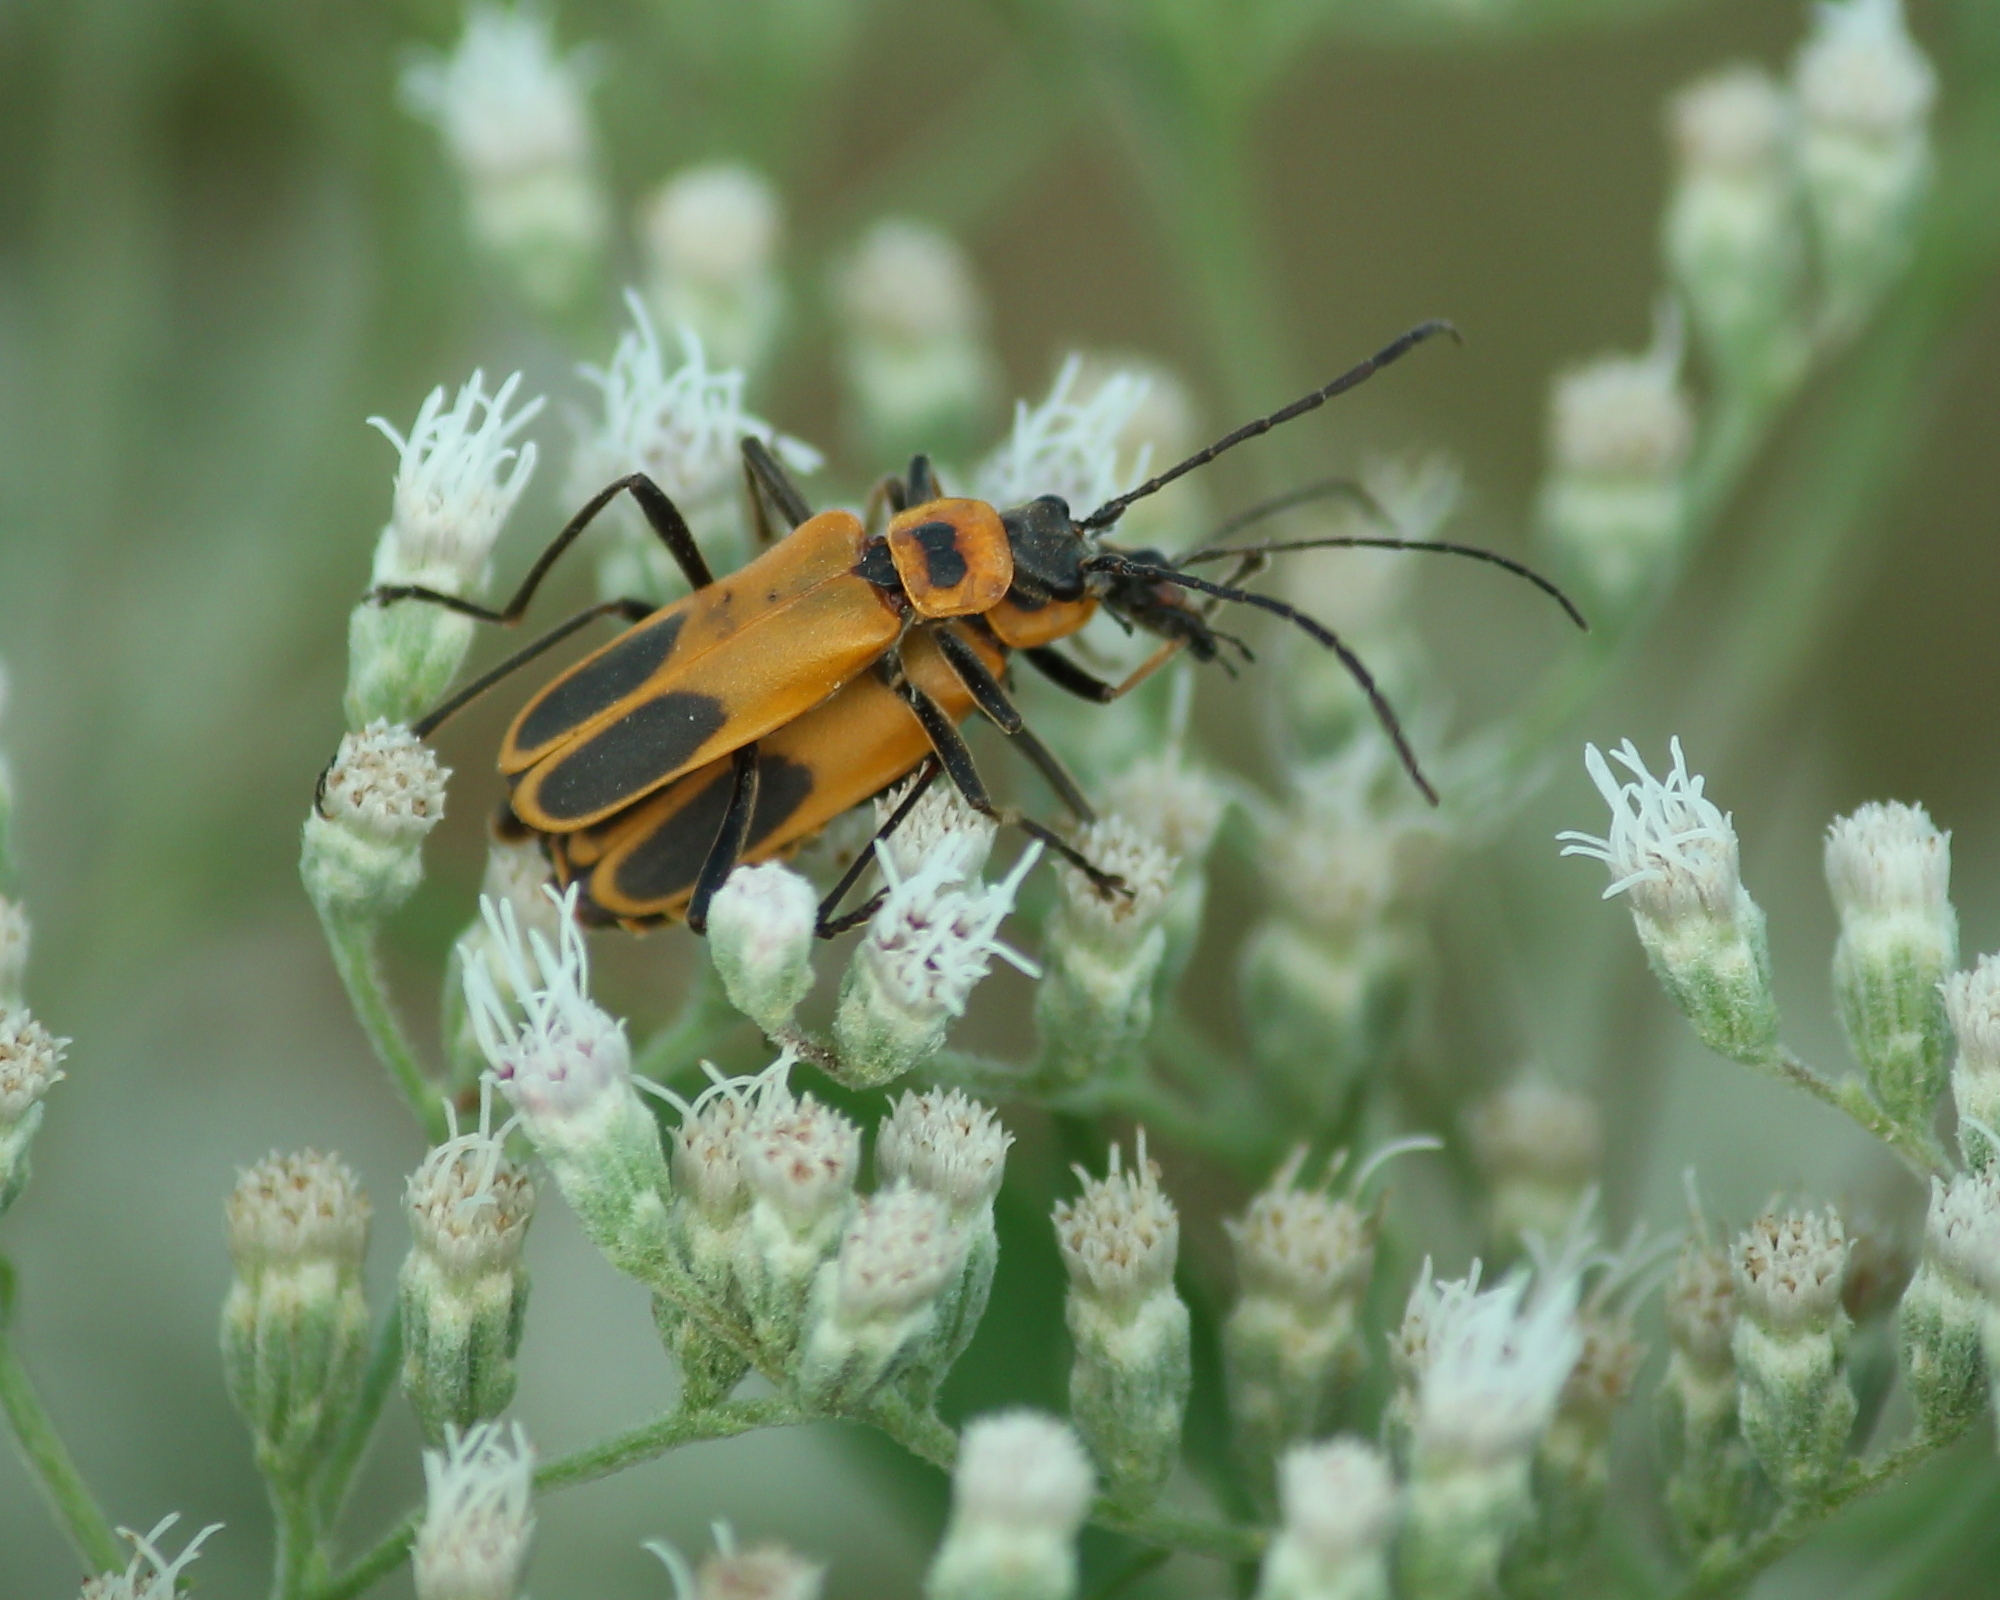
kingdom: Animalia
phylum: Arthropoda
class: Insecta
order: Coleoptera
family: Cantharidae
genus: Chauliognathus
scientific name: Chauliognathus pensylvanicus
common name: Goldenrod soldier beetle
